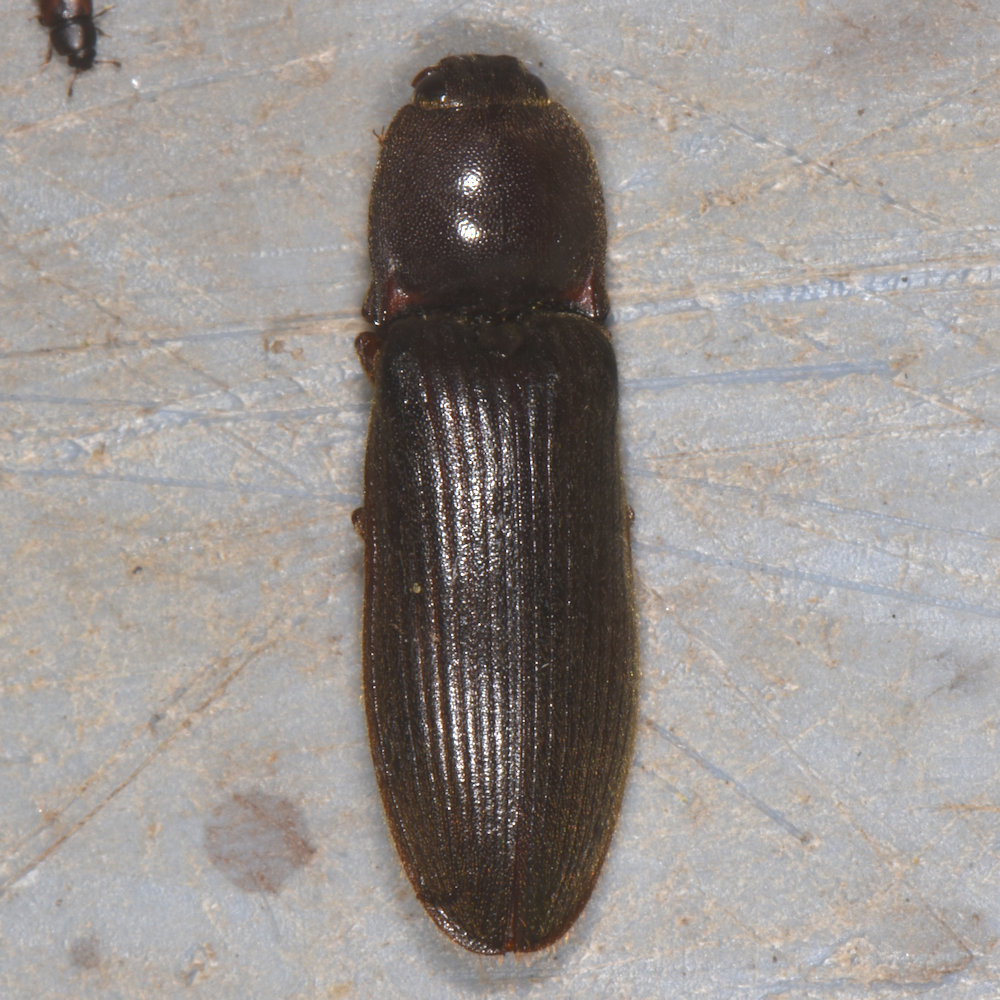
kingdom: Animalia
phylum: Arthropoda
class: Insecta
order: Coleoptera
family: Elateridae
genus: Hemicrepidius
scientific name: Hemicrepidius
